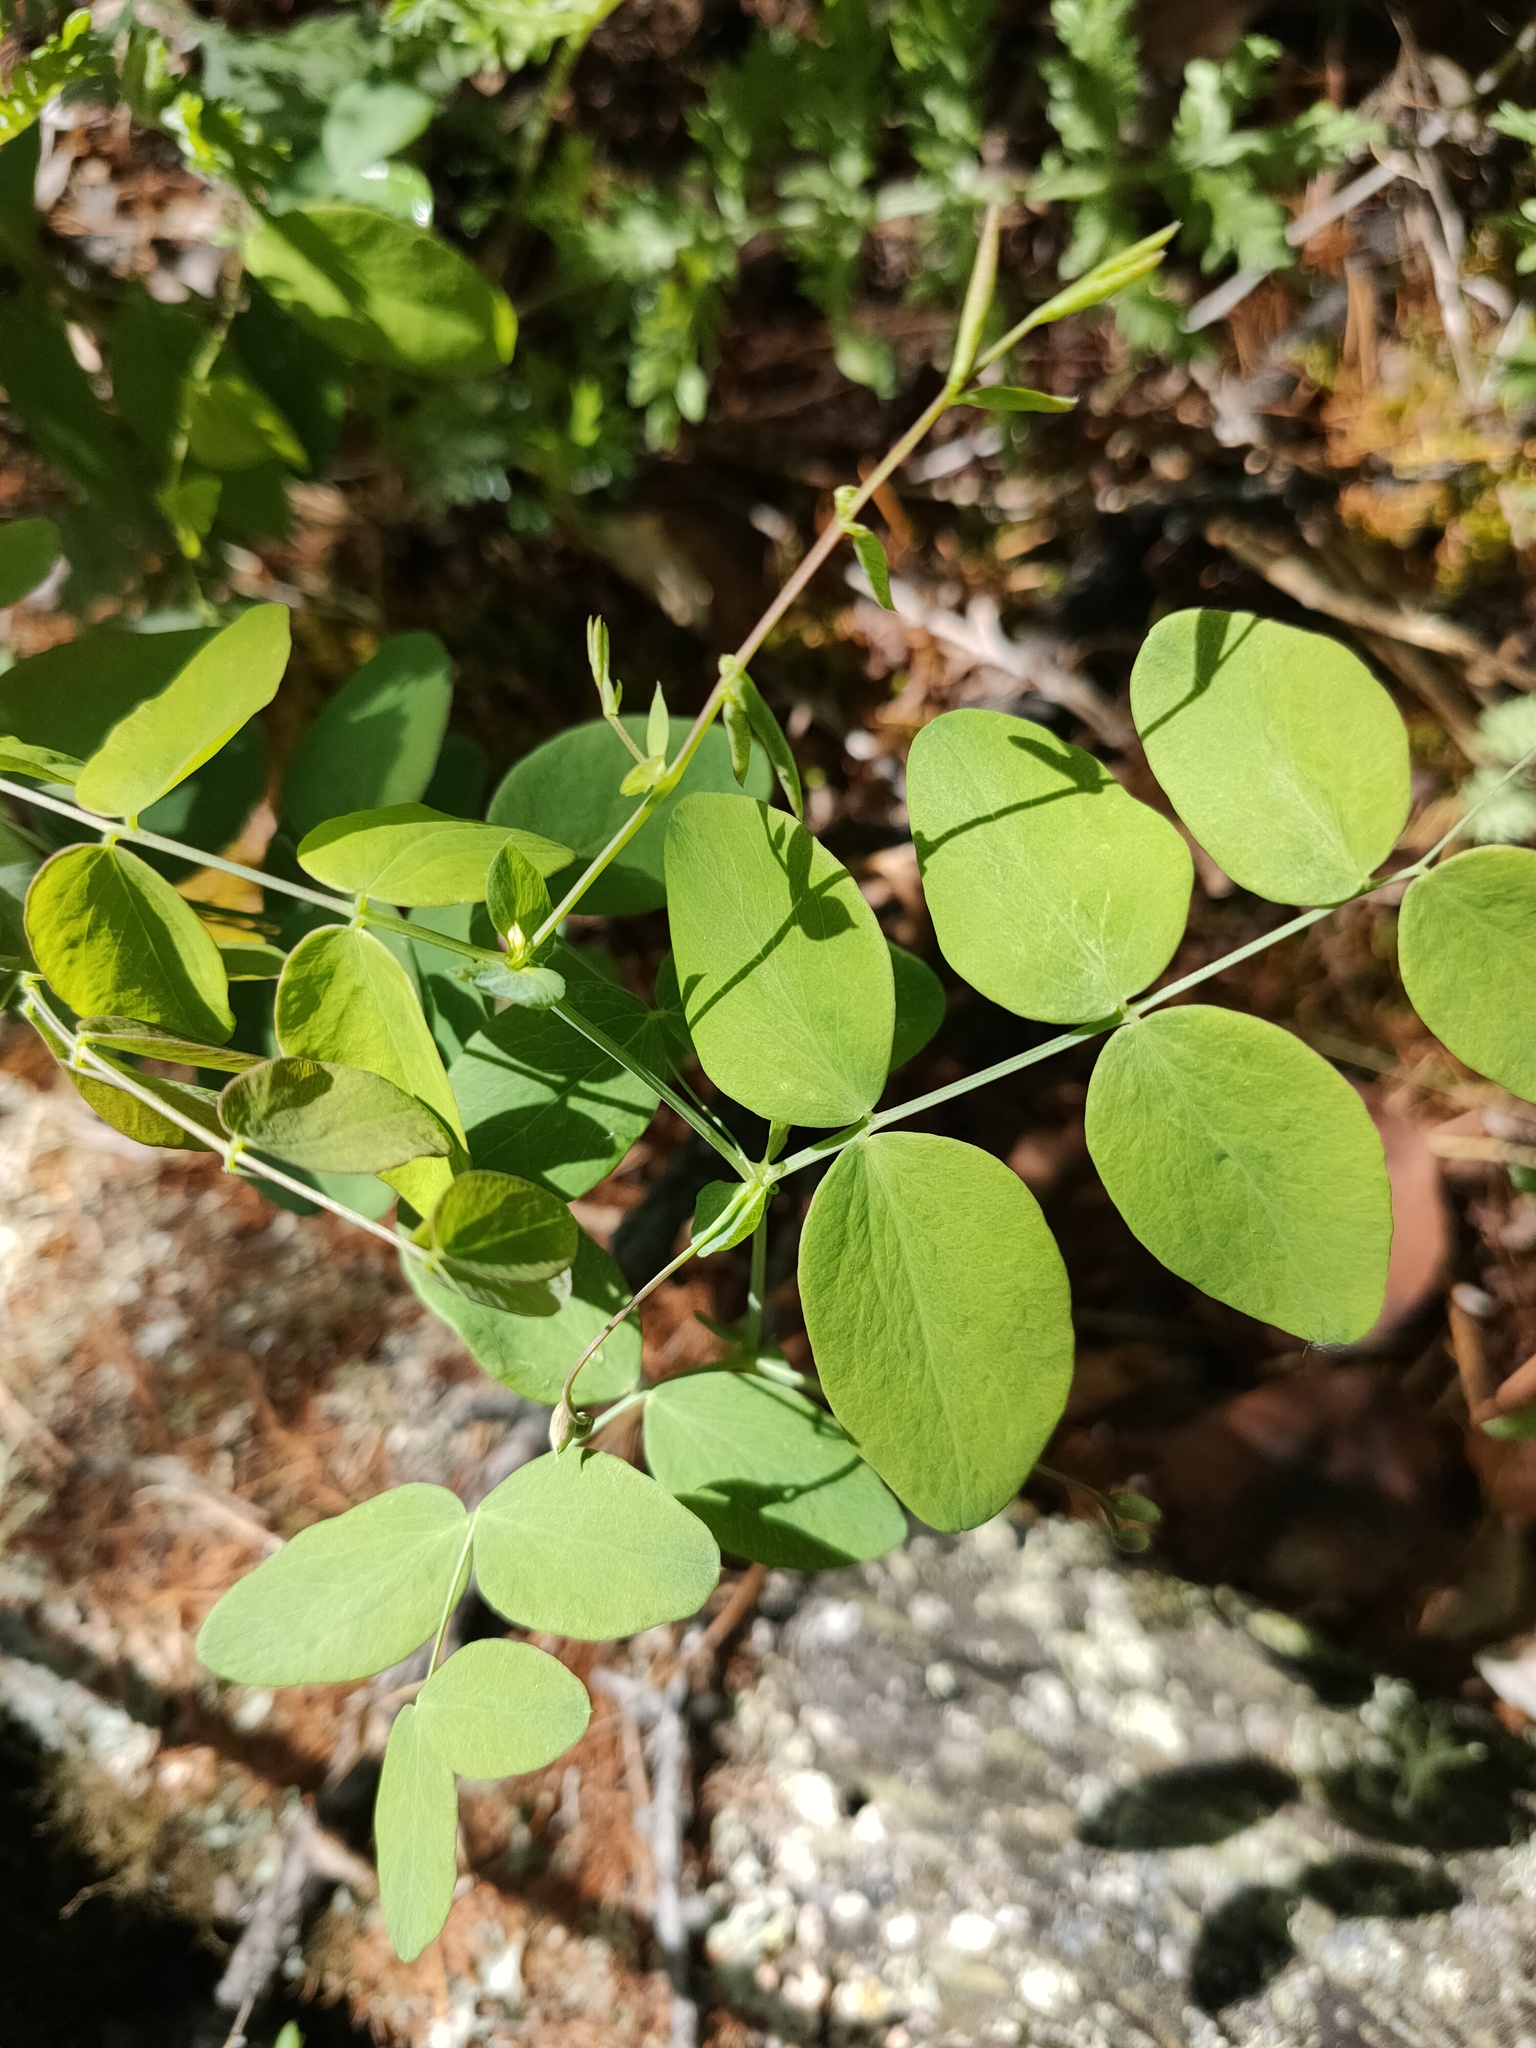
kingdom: Plantae
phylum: Tracheophyta
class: Magnoliopsida
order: Fabales
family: Fabaceae
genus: Lathyrus
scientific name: Lathyrus humilis
